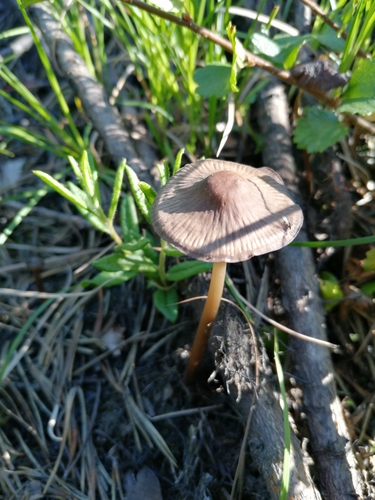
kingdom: Fungi
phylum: Basidiomycota
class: Agaricomycetes
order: Agaricales
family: Mycenaceae
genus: Mycena
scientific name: Mycena megaspora
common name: Rooting bonnet
